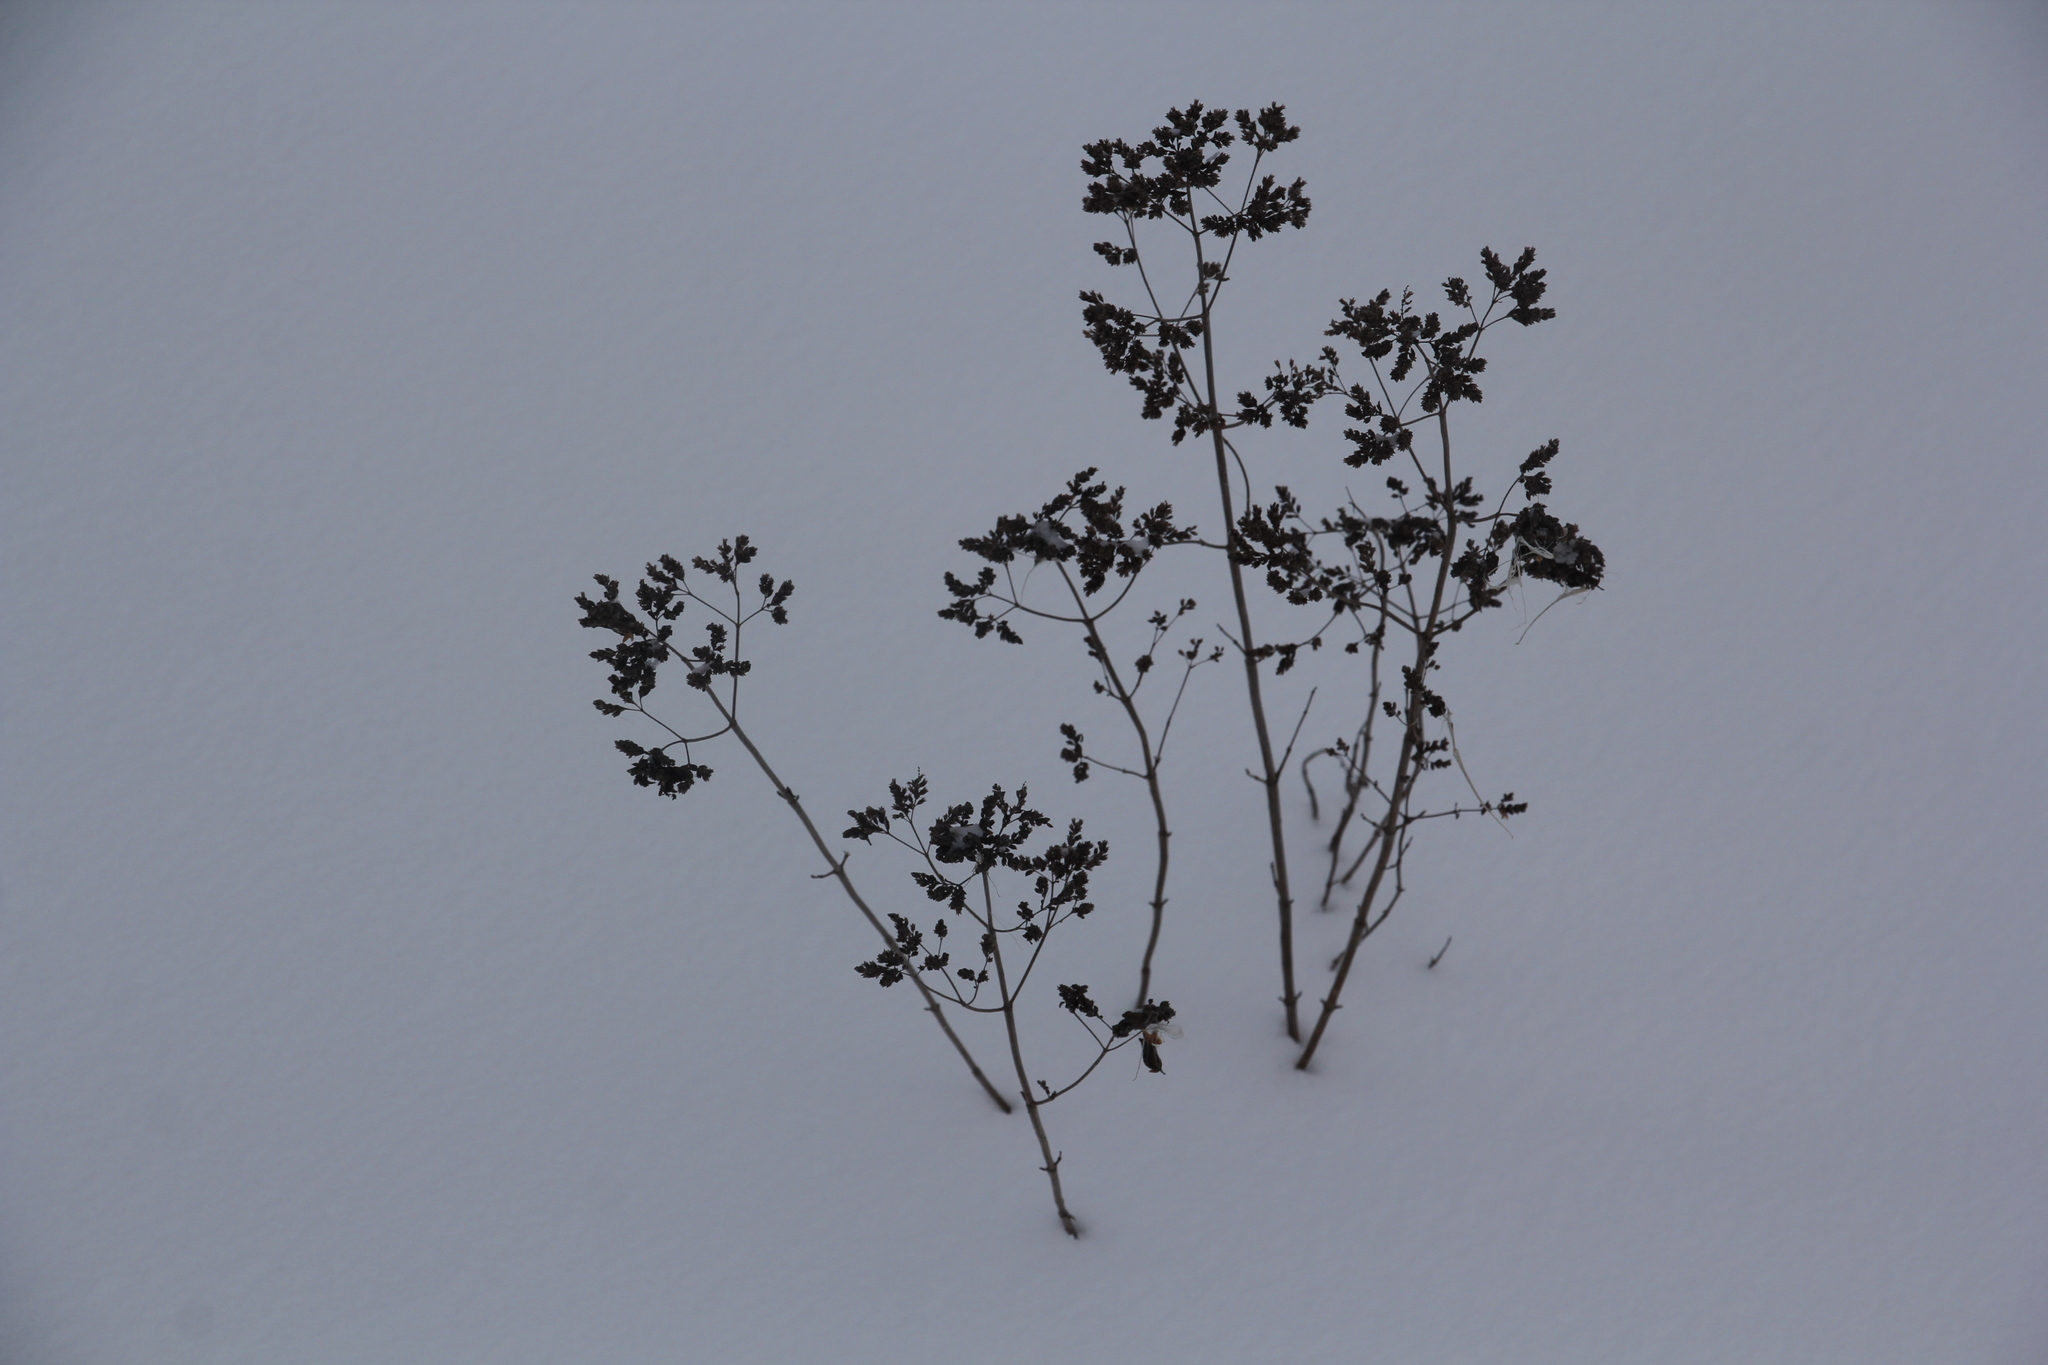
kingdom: Plantae
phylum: Tracheophyta
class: Magnoliopsida
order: Lamiales
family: Lamiaceae
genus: Origanum
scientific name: Origanum vulgare
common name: Wild marjoram
